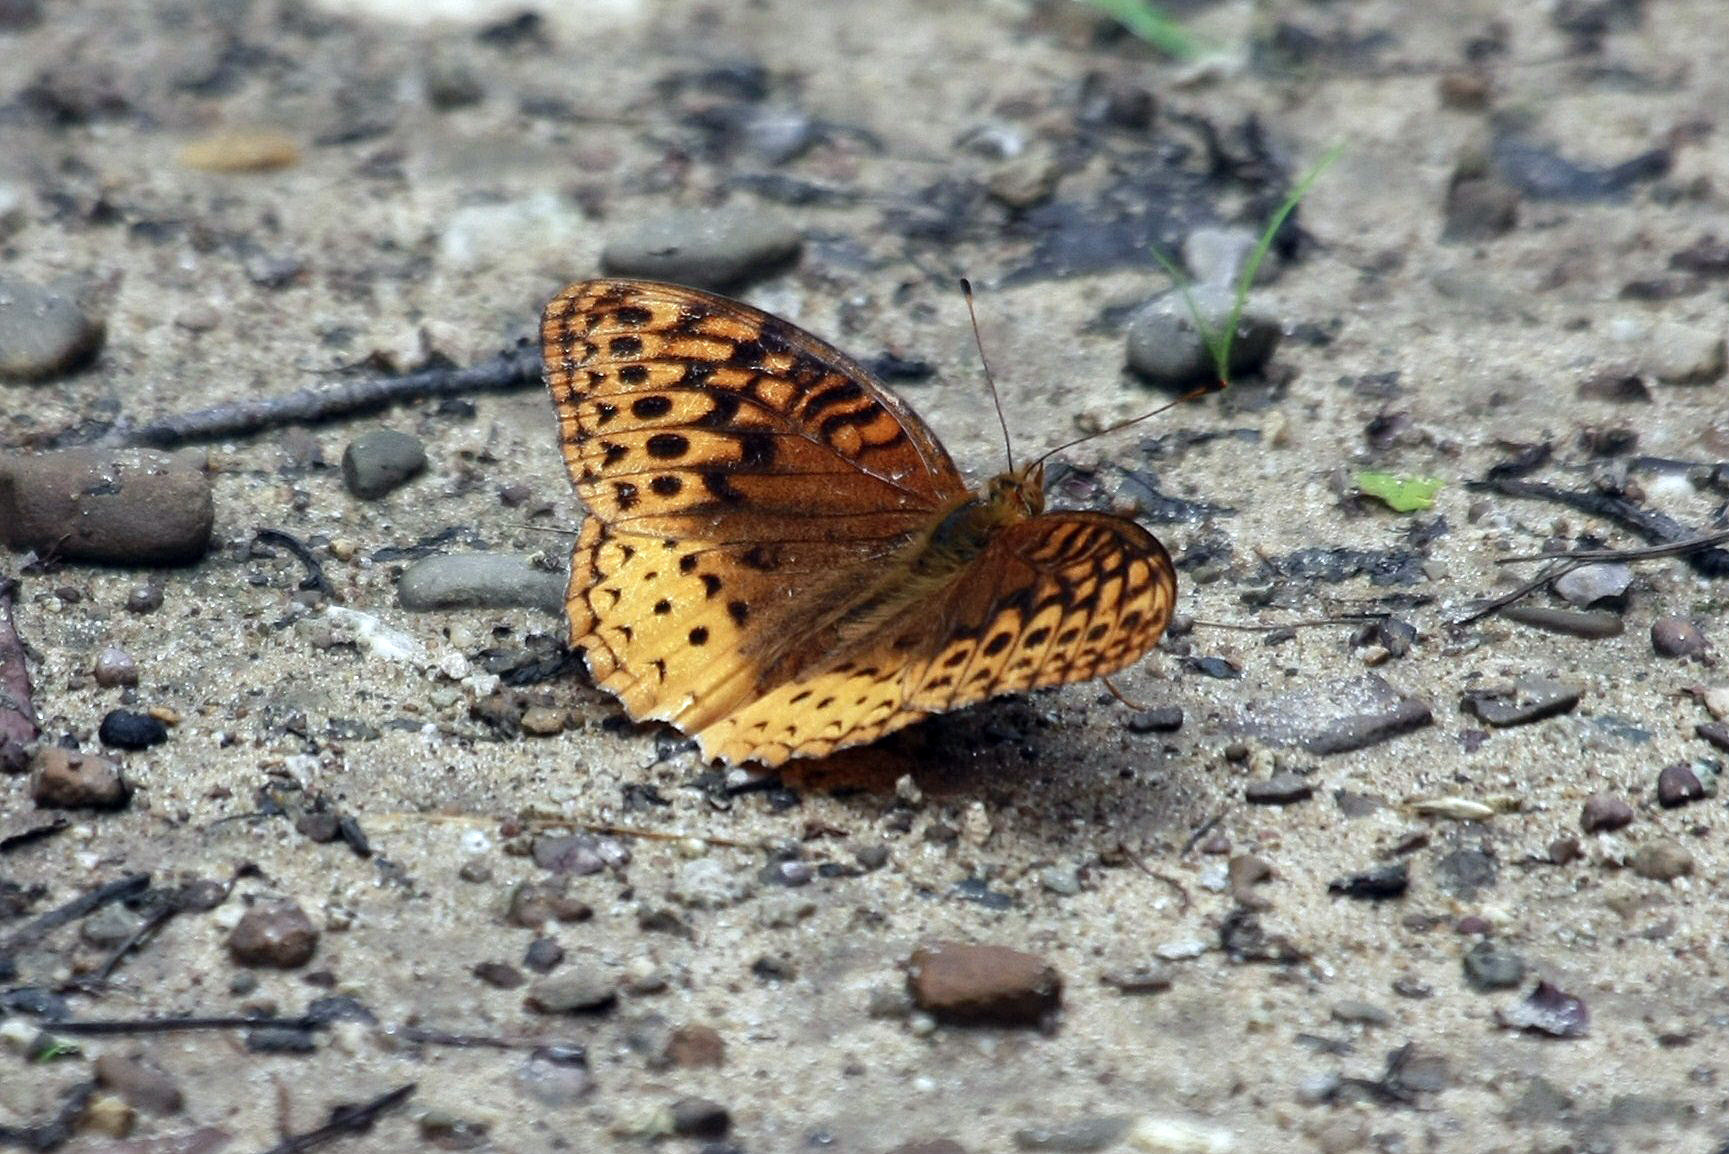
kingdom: Animalia
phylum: Arthropoda
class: Insecta
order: Lepidoptera
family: Nymphalidae
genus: Speyeria
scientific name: Speyeria cybele
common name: Great spangled fritillary
